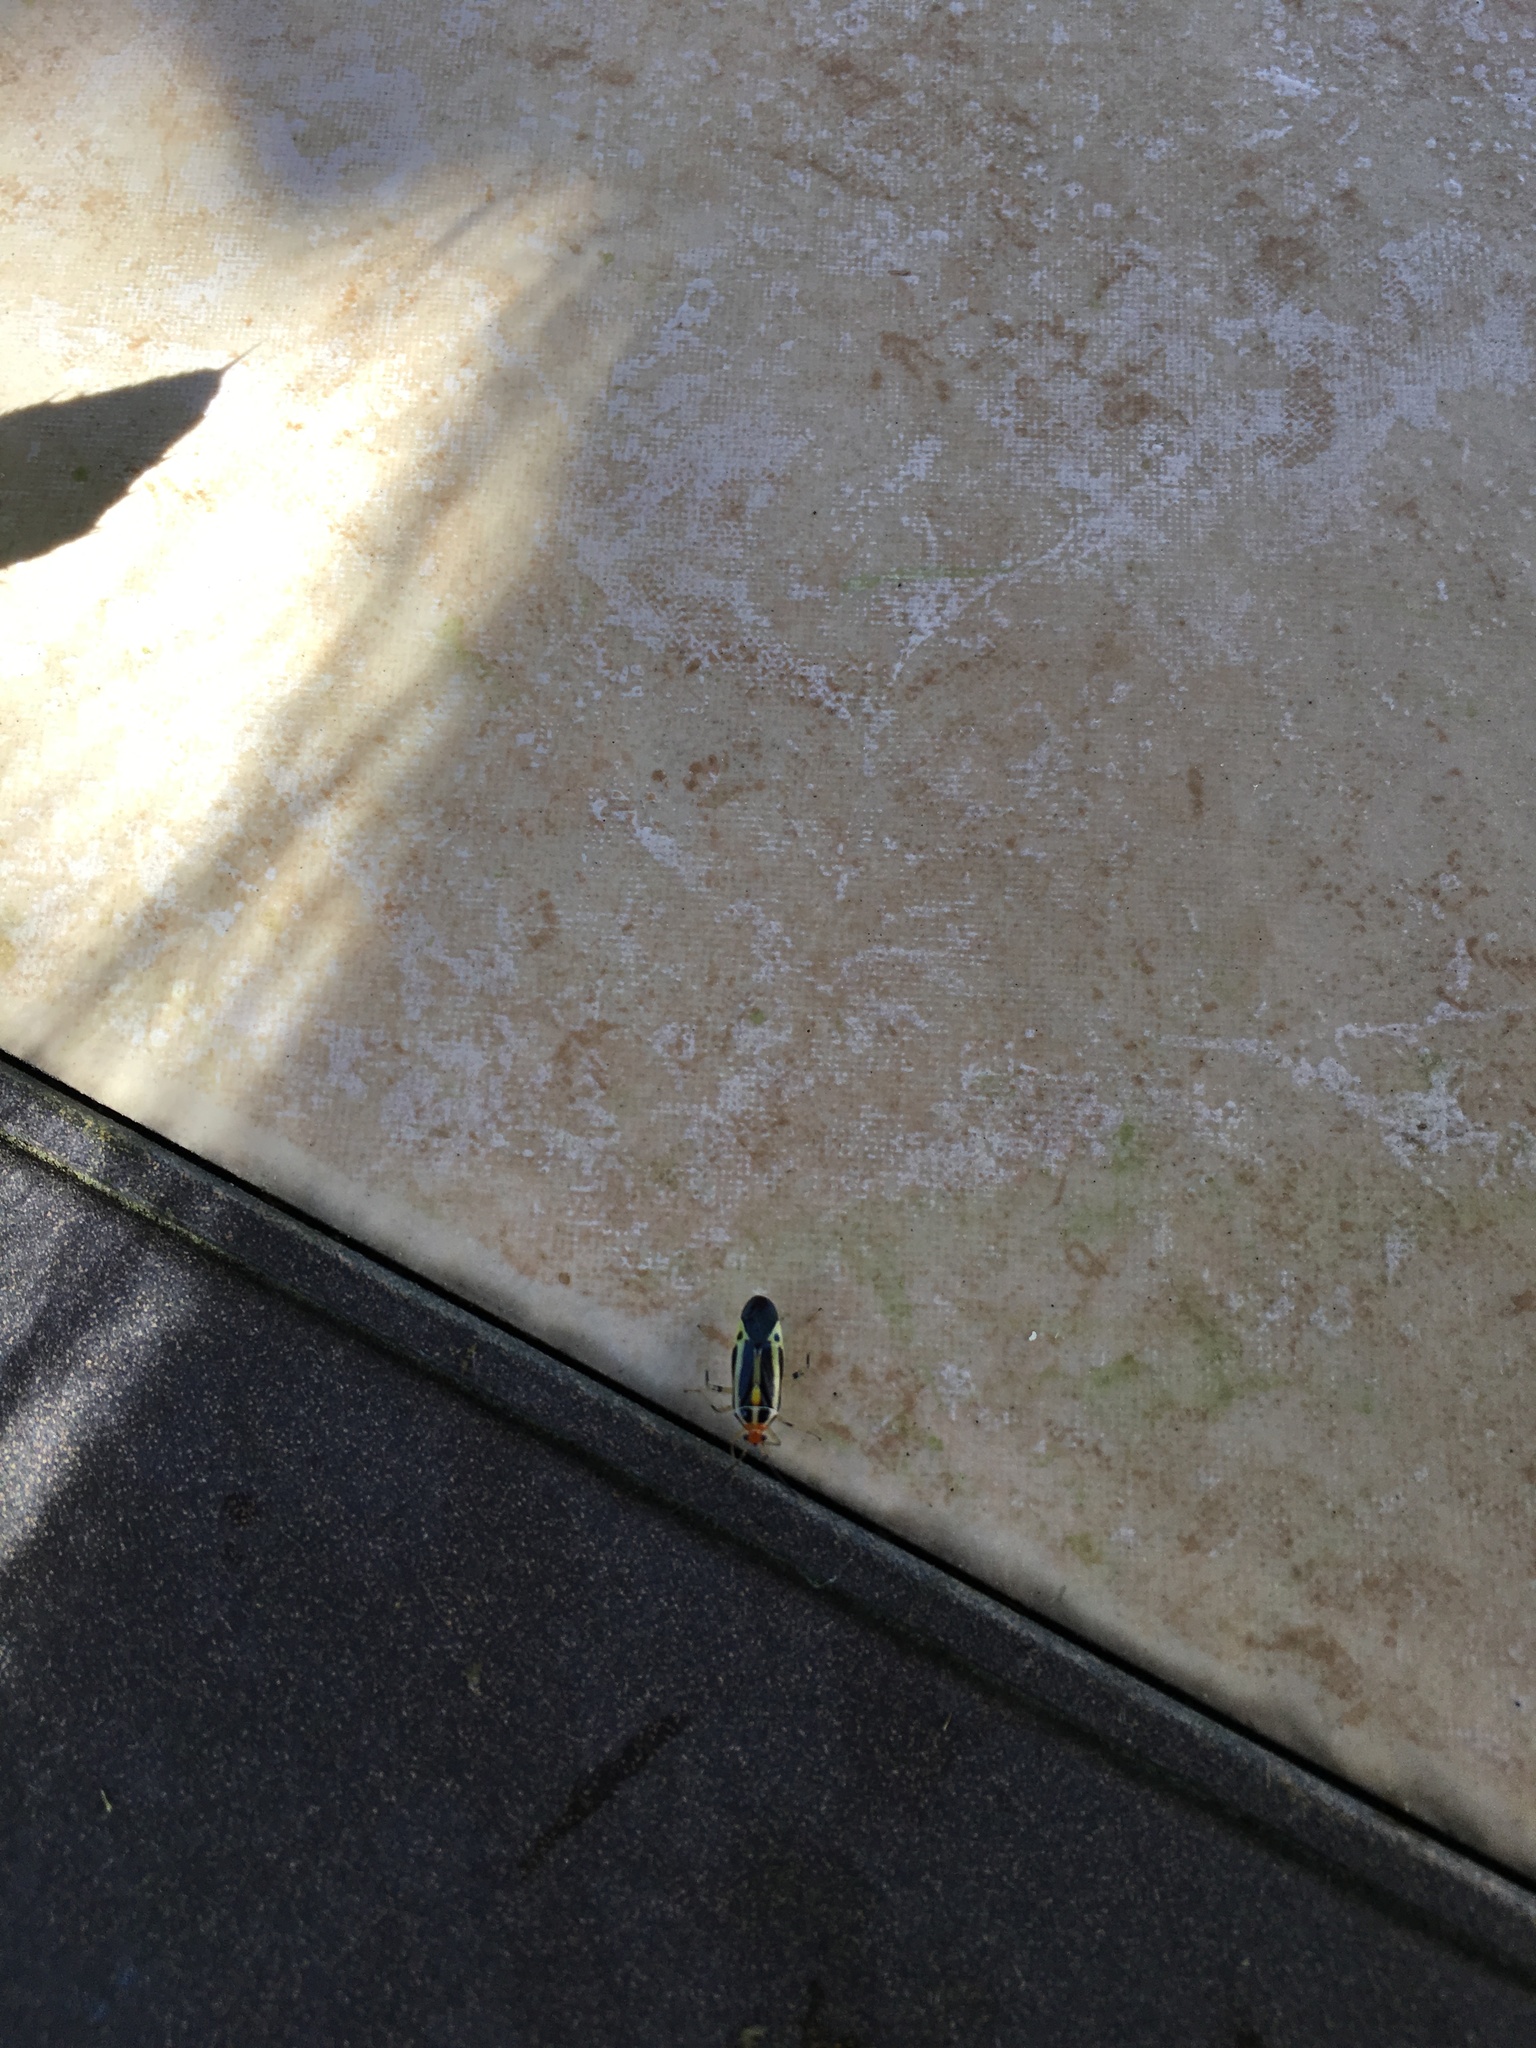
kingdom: Animalia
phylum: Arthropoda
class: Insecta
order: Hemiptera
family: Miridae
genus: Poecilocapsus
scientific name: Poecilocapsus lineatus
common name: Four-lined plant bug
